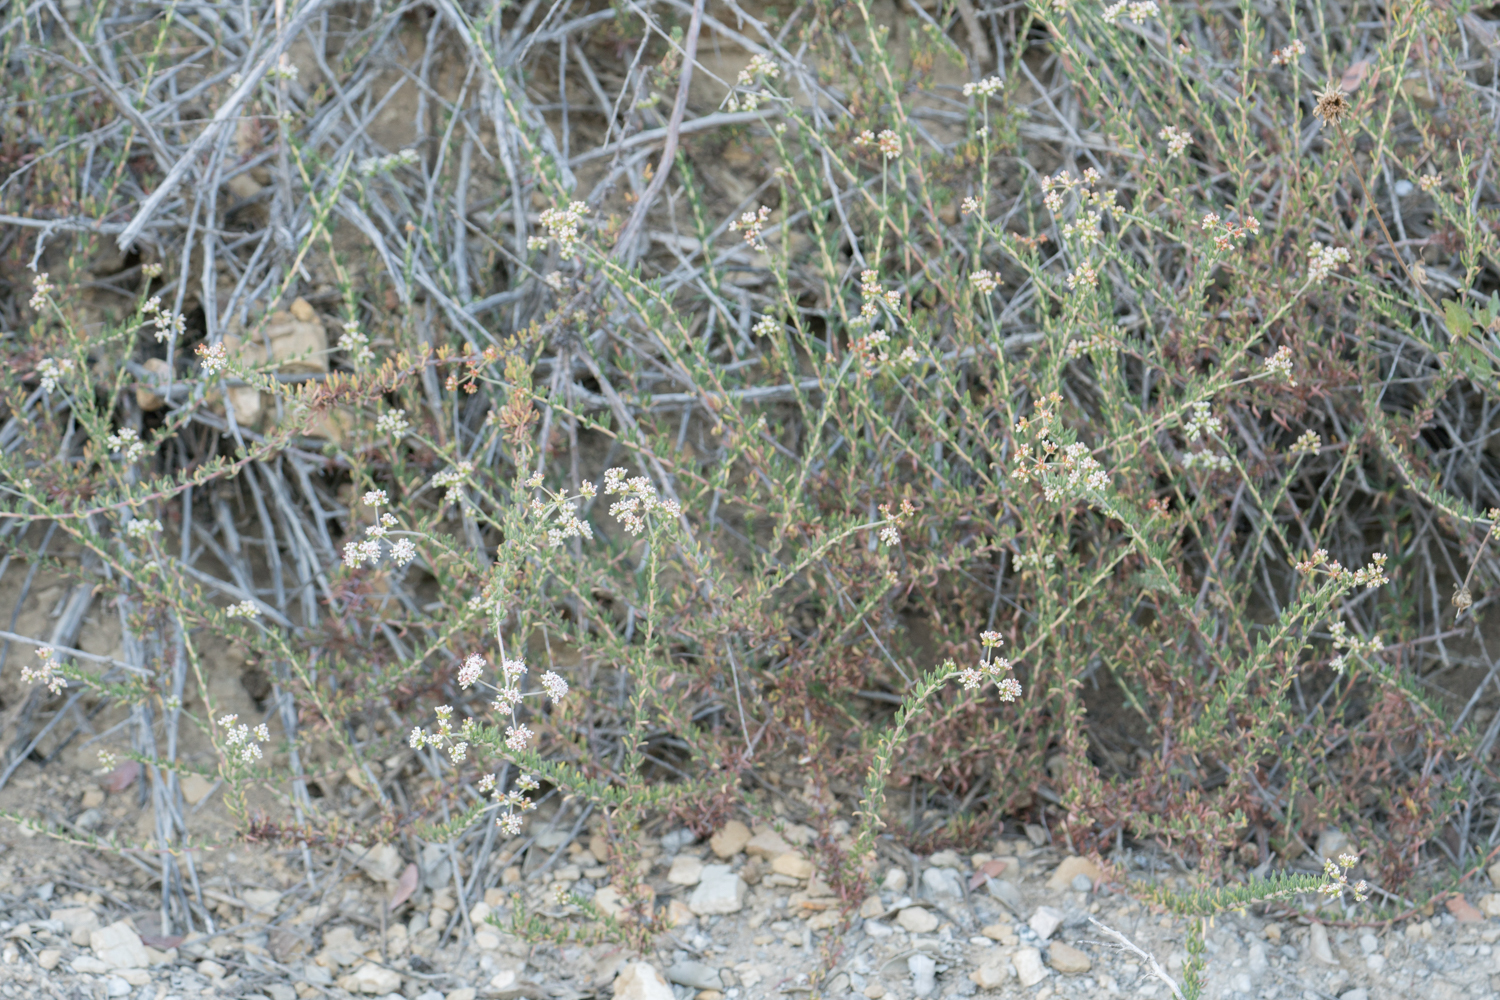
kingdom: Plantae
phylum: Tracheophyta
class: Magnoliopsida
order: Caryophyllales
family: Polygonaceae
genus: Eriogonum
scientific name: Eriogonum fasciculatum
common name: California wild buckwheat
